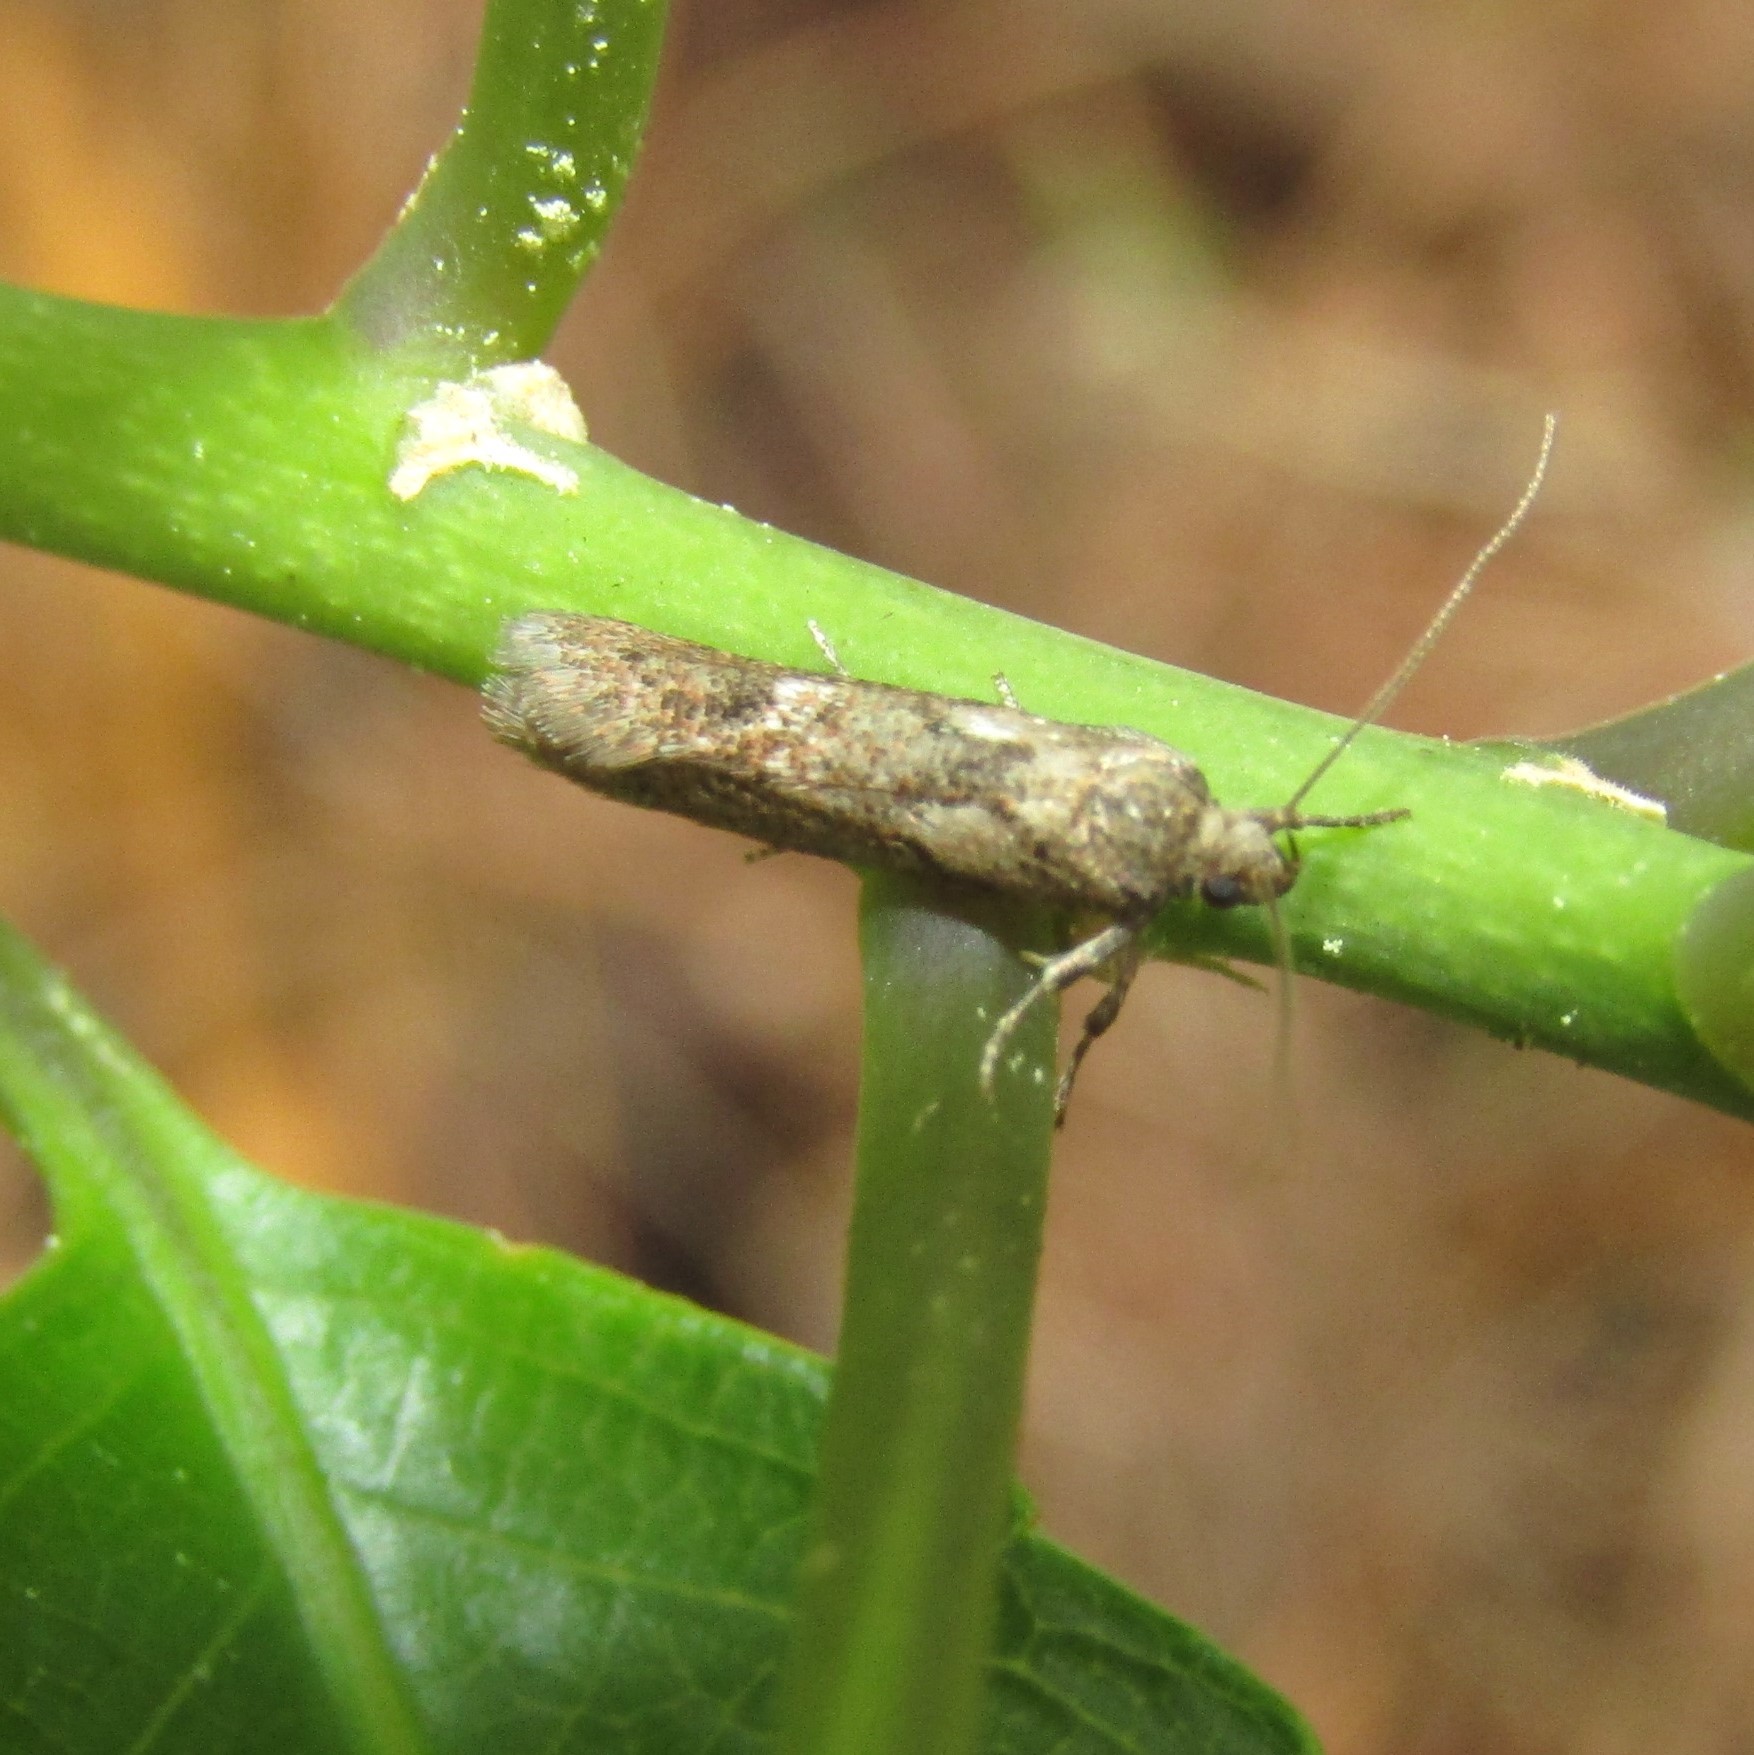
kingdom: Animalia
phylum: Arthropoda
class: Insecta
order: Lepidoptera
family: Oecophoridae
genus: Chersadaula
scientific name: Chersadaula ochrogastra
